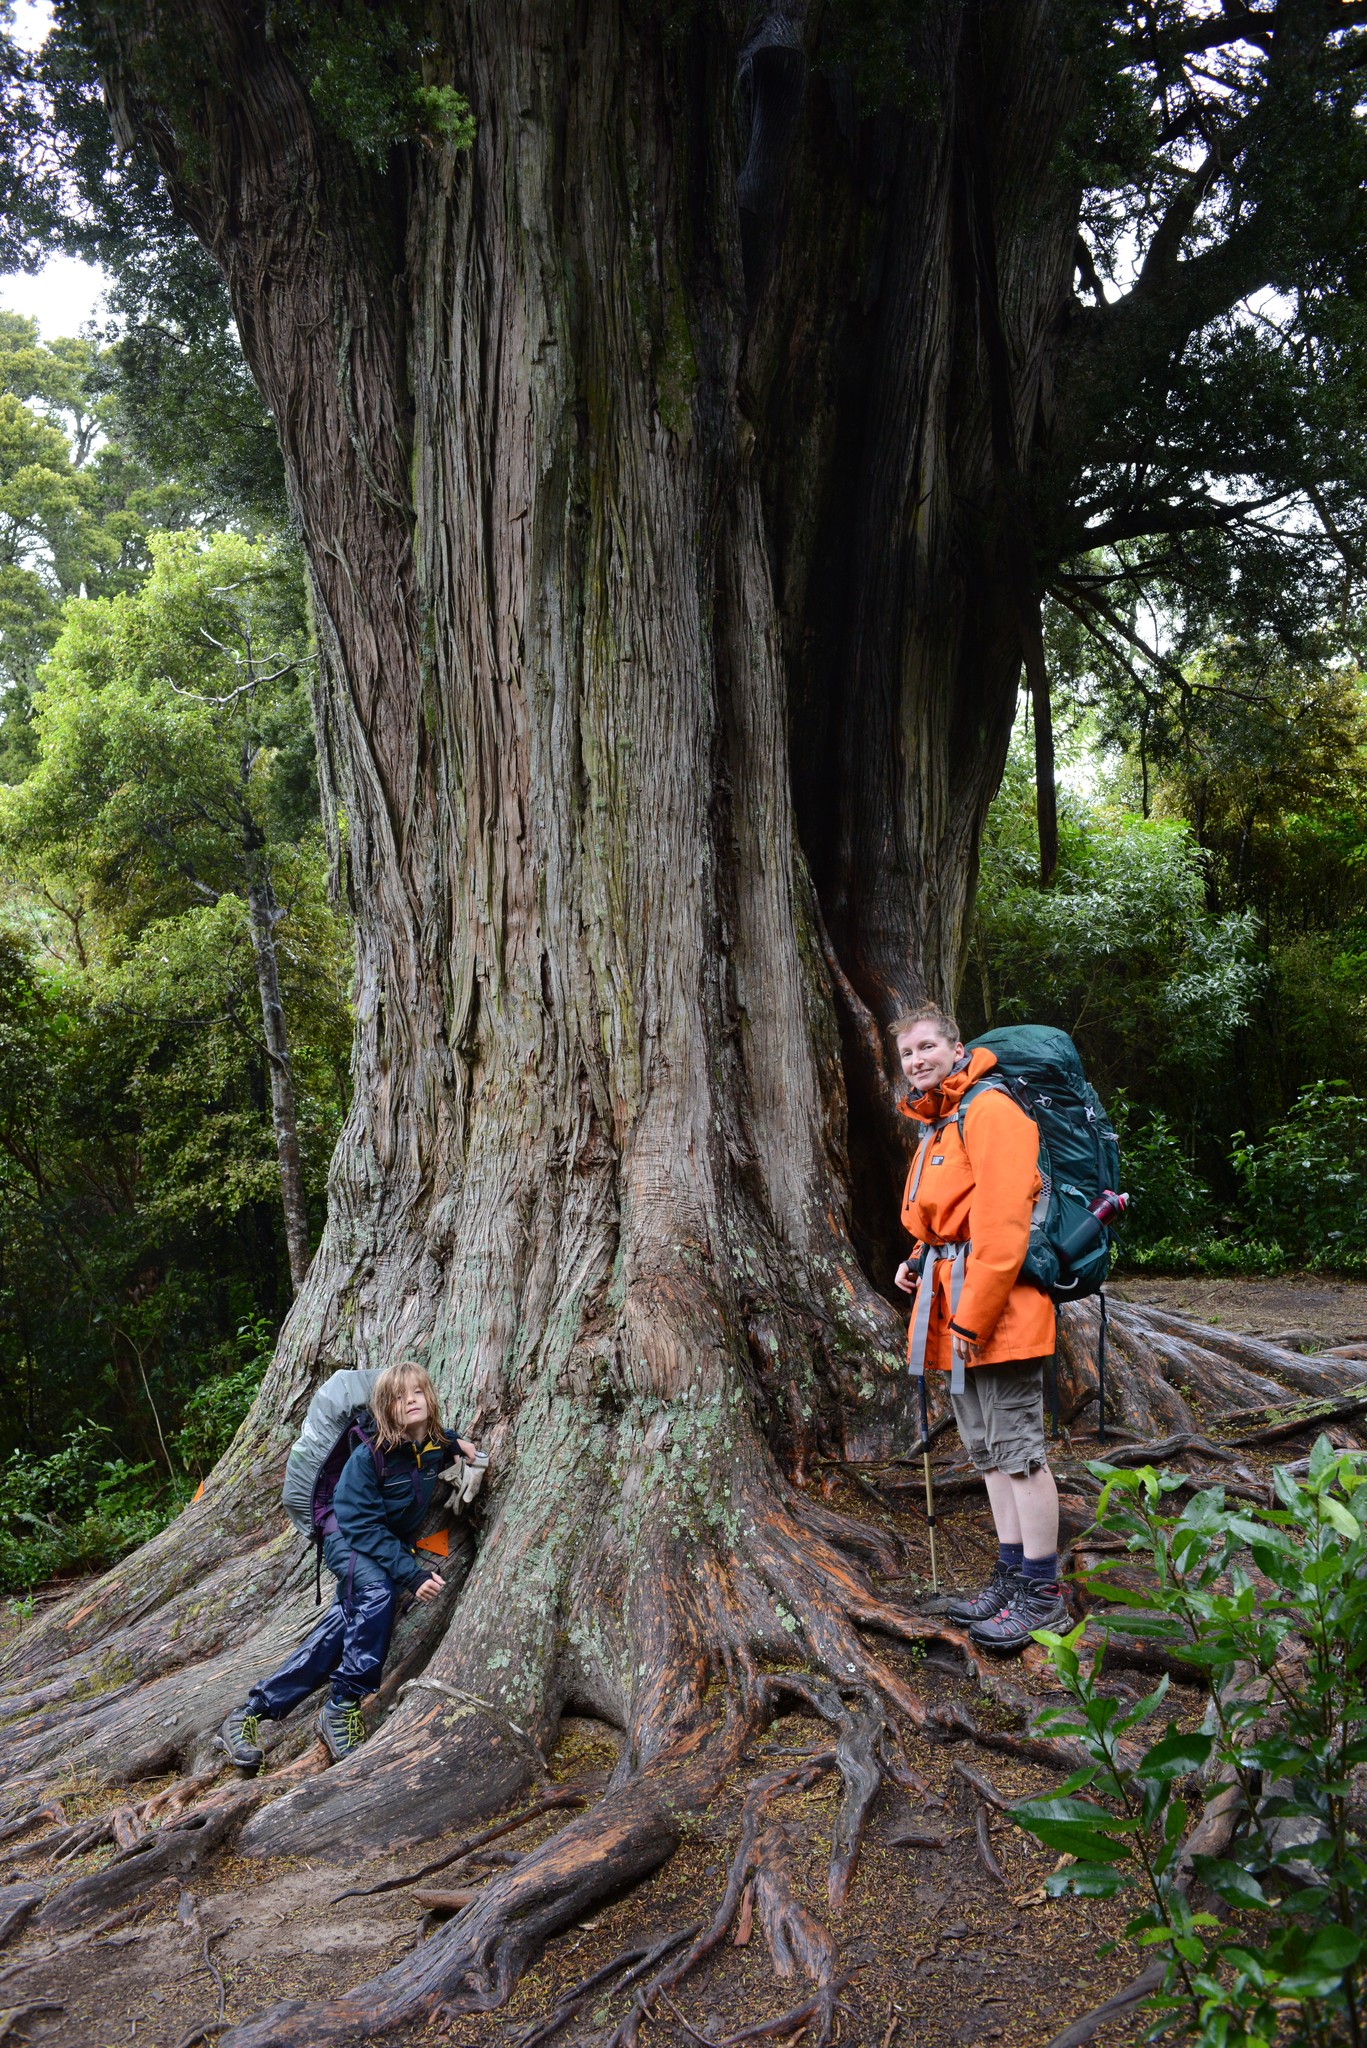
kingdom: Plantae
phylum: Tracheophyta
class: Pinopsida
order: Pinales
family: Podocarpaceae
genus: Podocarpus
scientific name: Podocarpus totara
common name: Totara
